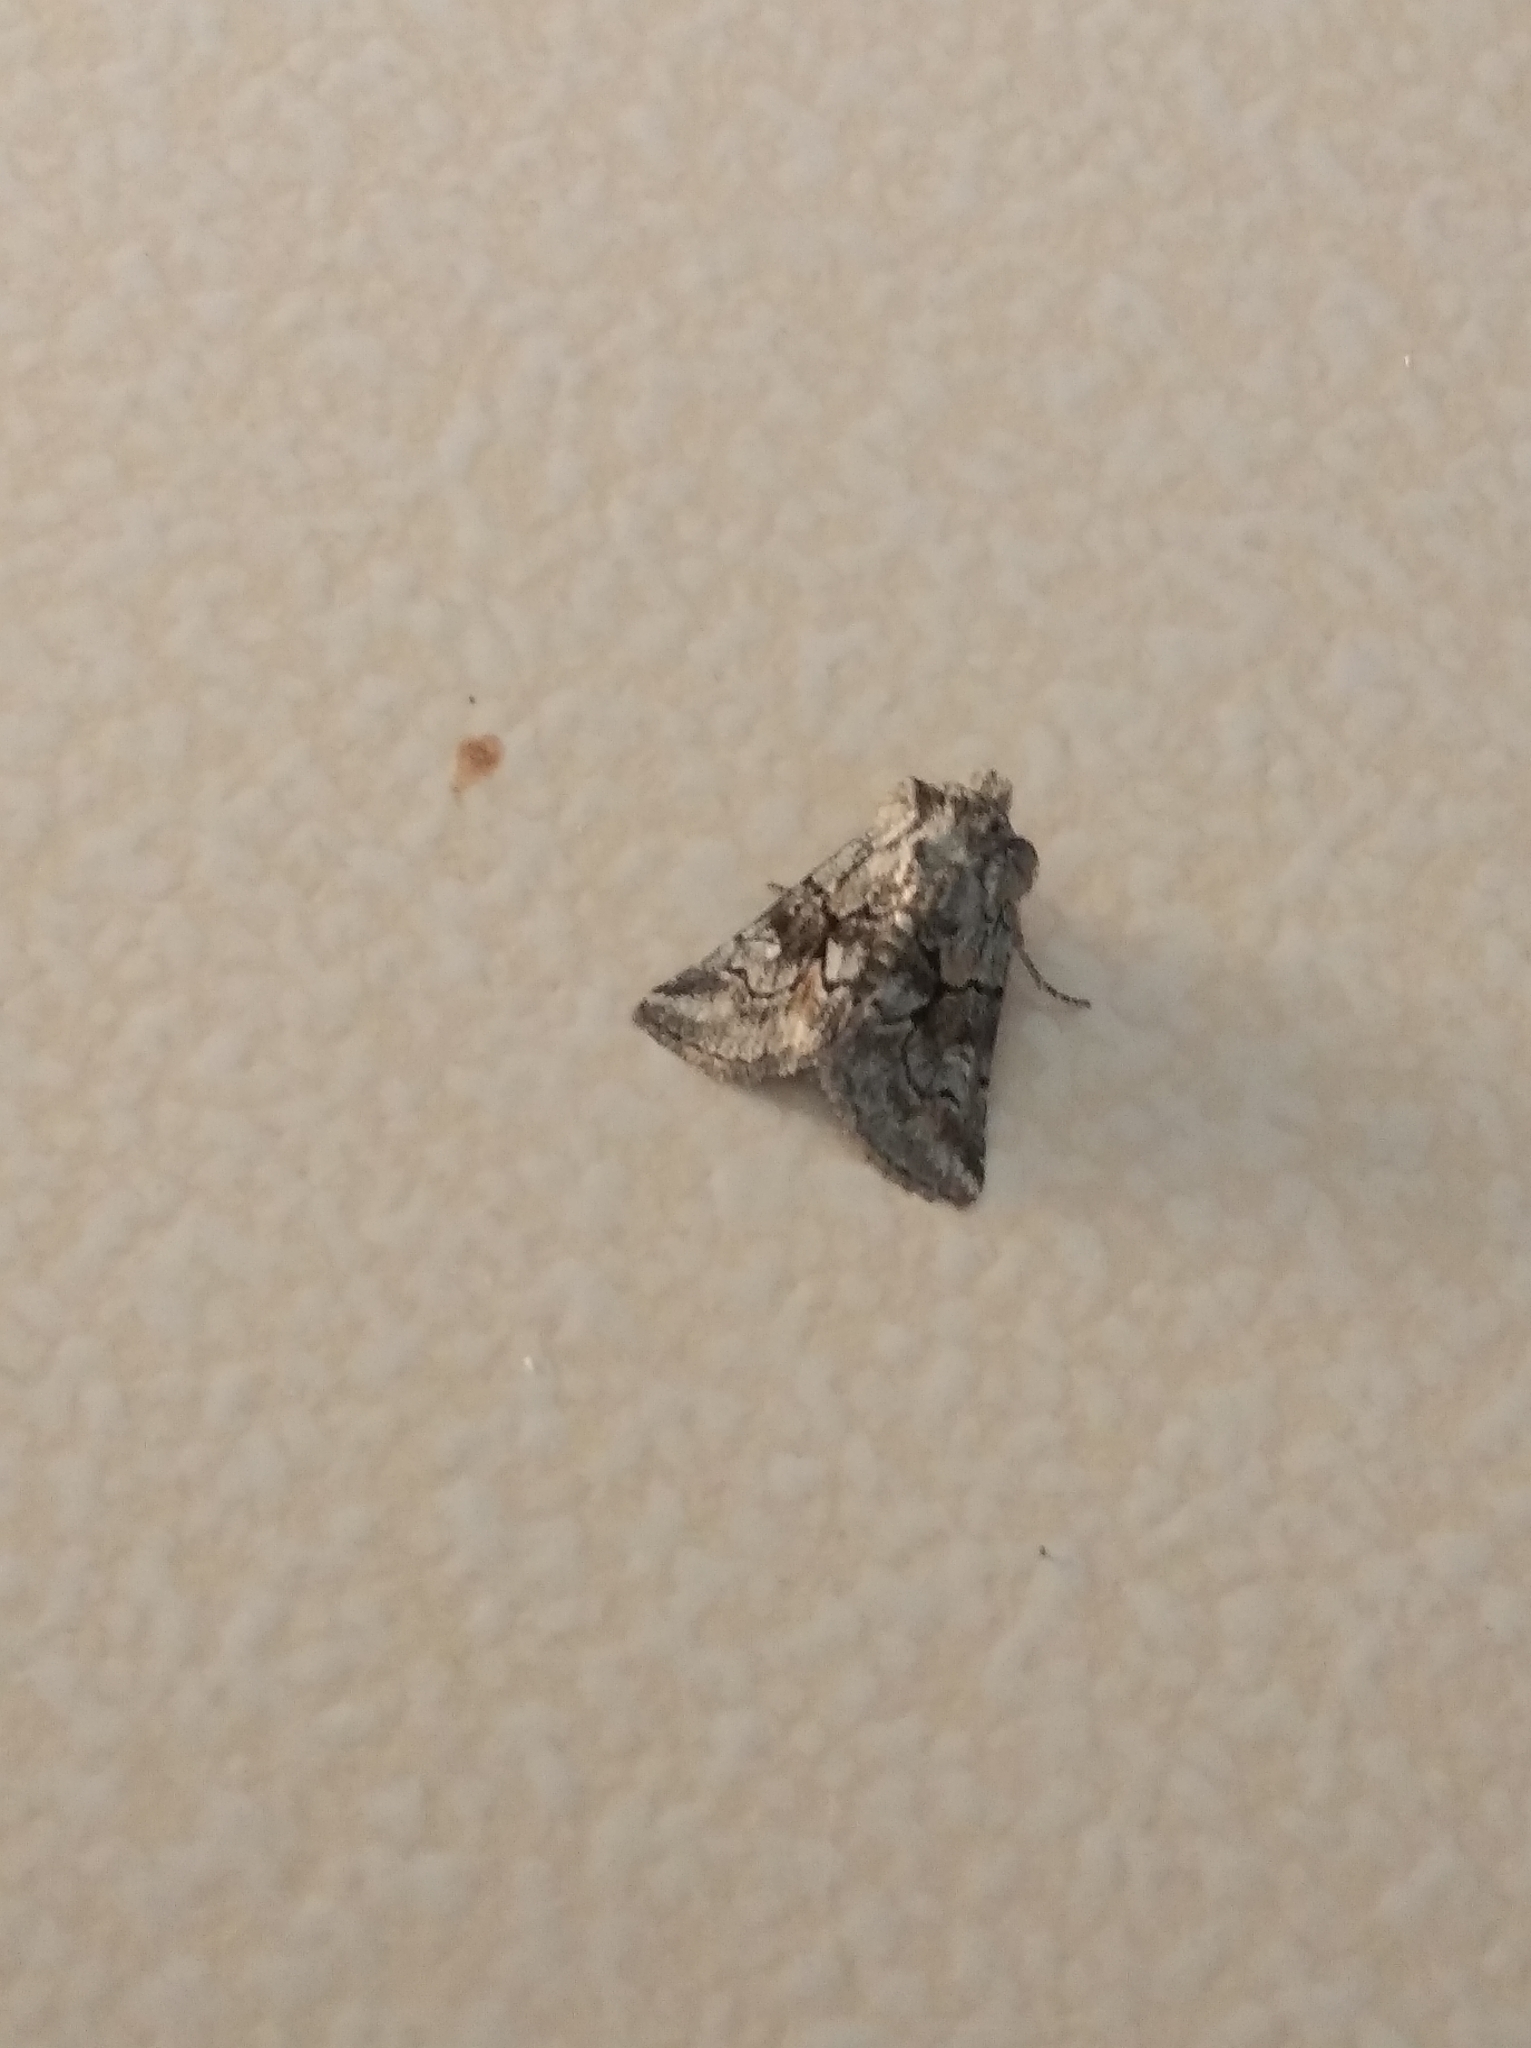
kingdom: Animalia
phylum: Arthropoda
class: Insecta
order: Lepidoptera
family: Noctuidae
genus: Cleonymia
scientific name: Cleonymia yvanii
